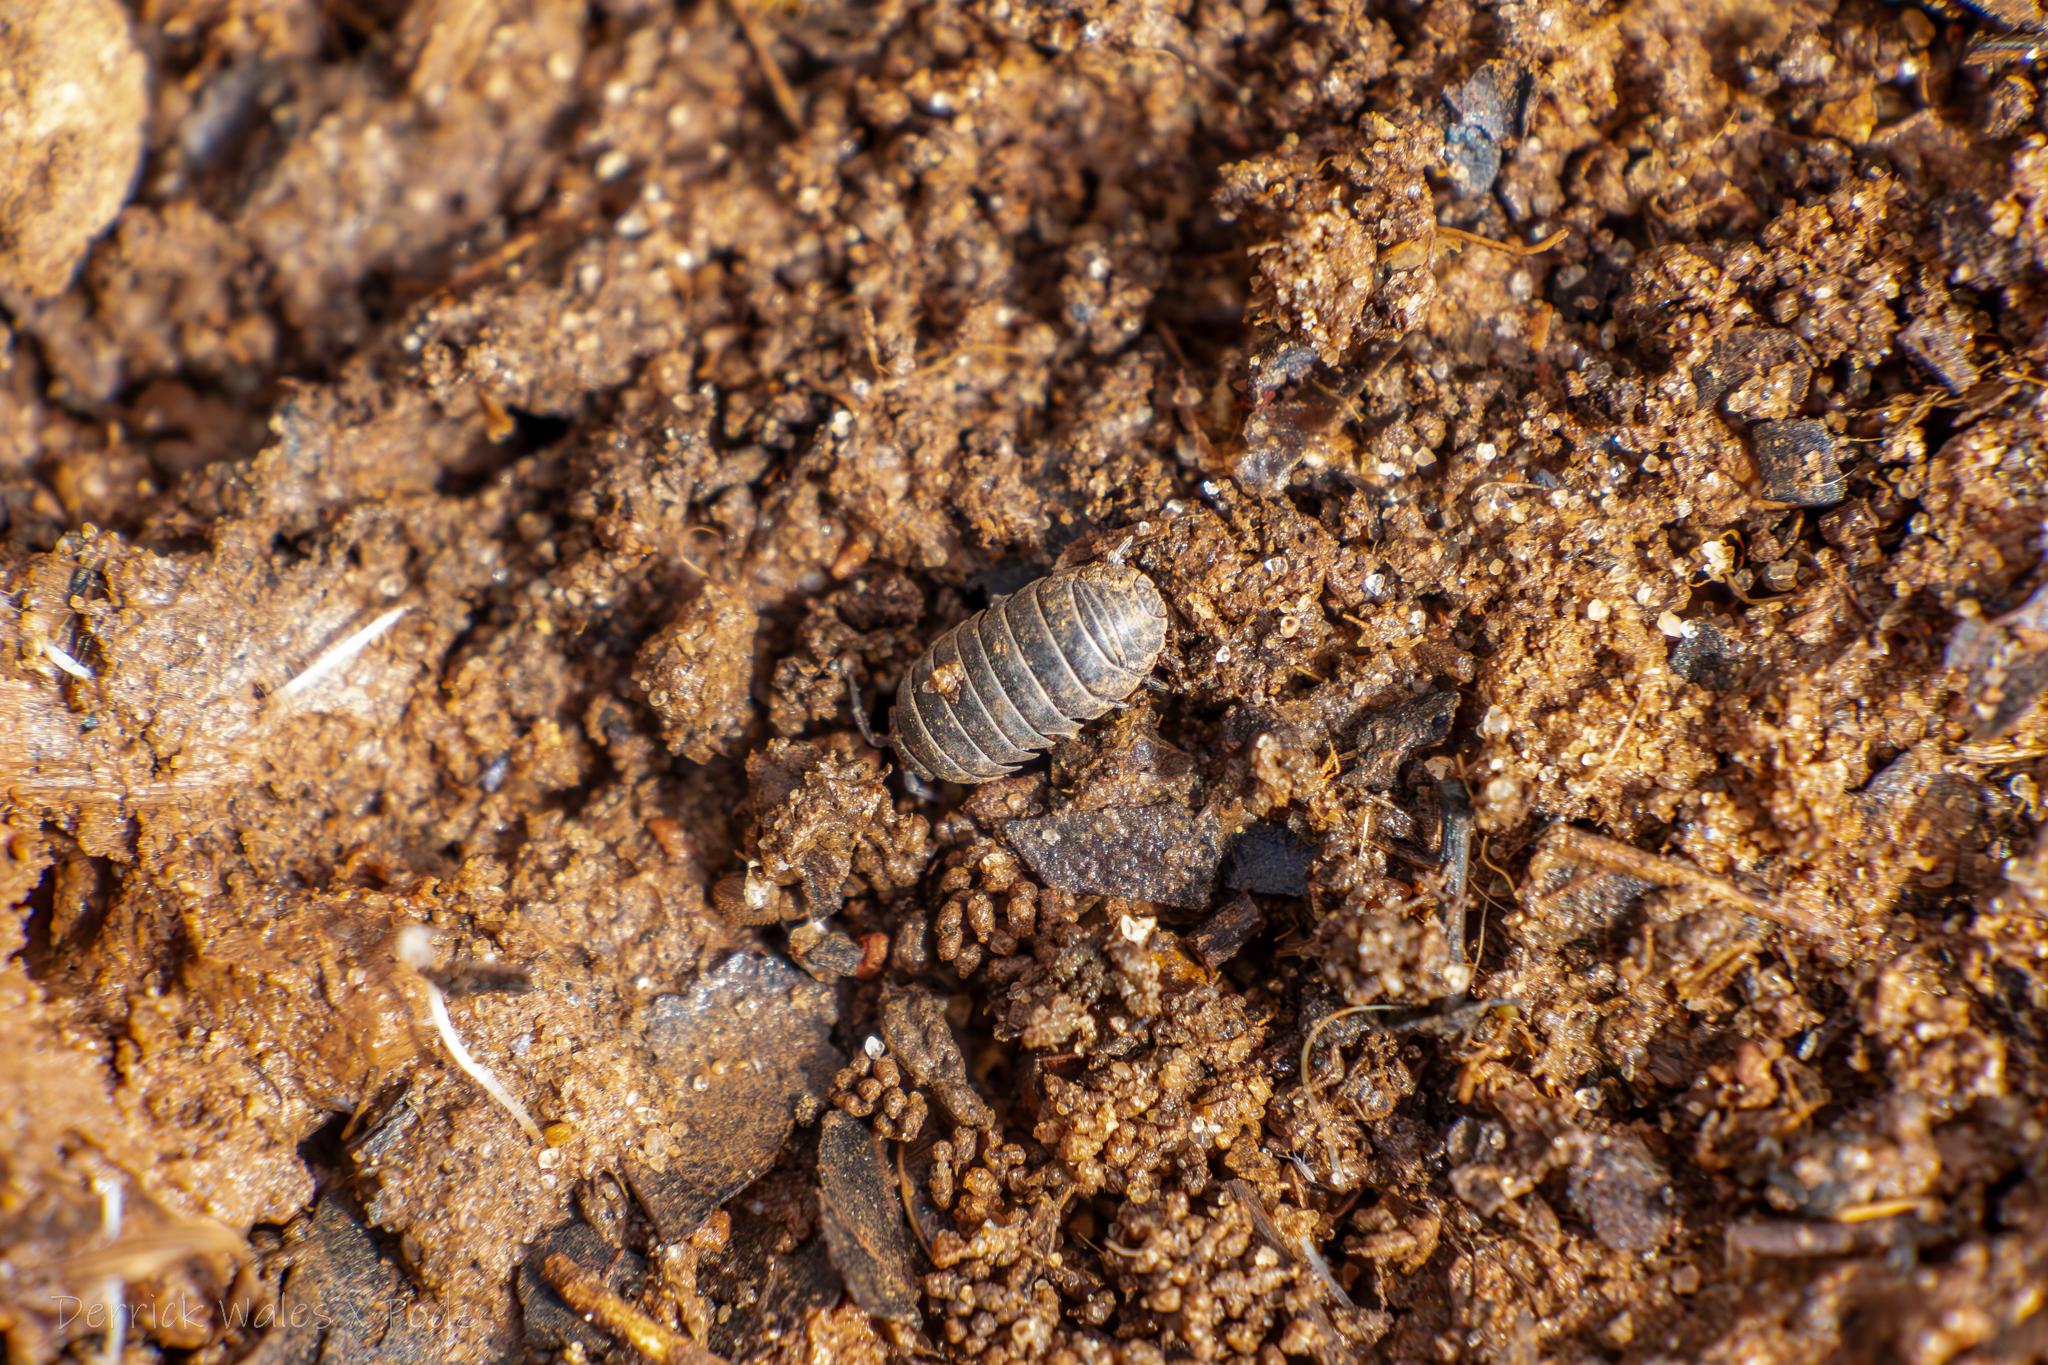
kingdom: Animalia
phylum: Arthropoda
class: Malacostraca
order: Isopoda
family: Armadillidiidae
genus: Armadillidium
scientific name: Armadillidium vulgare
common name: Common pill woodlouse
